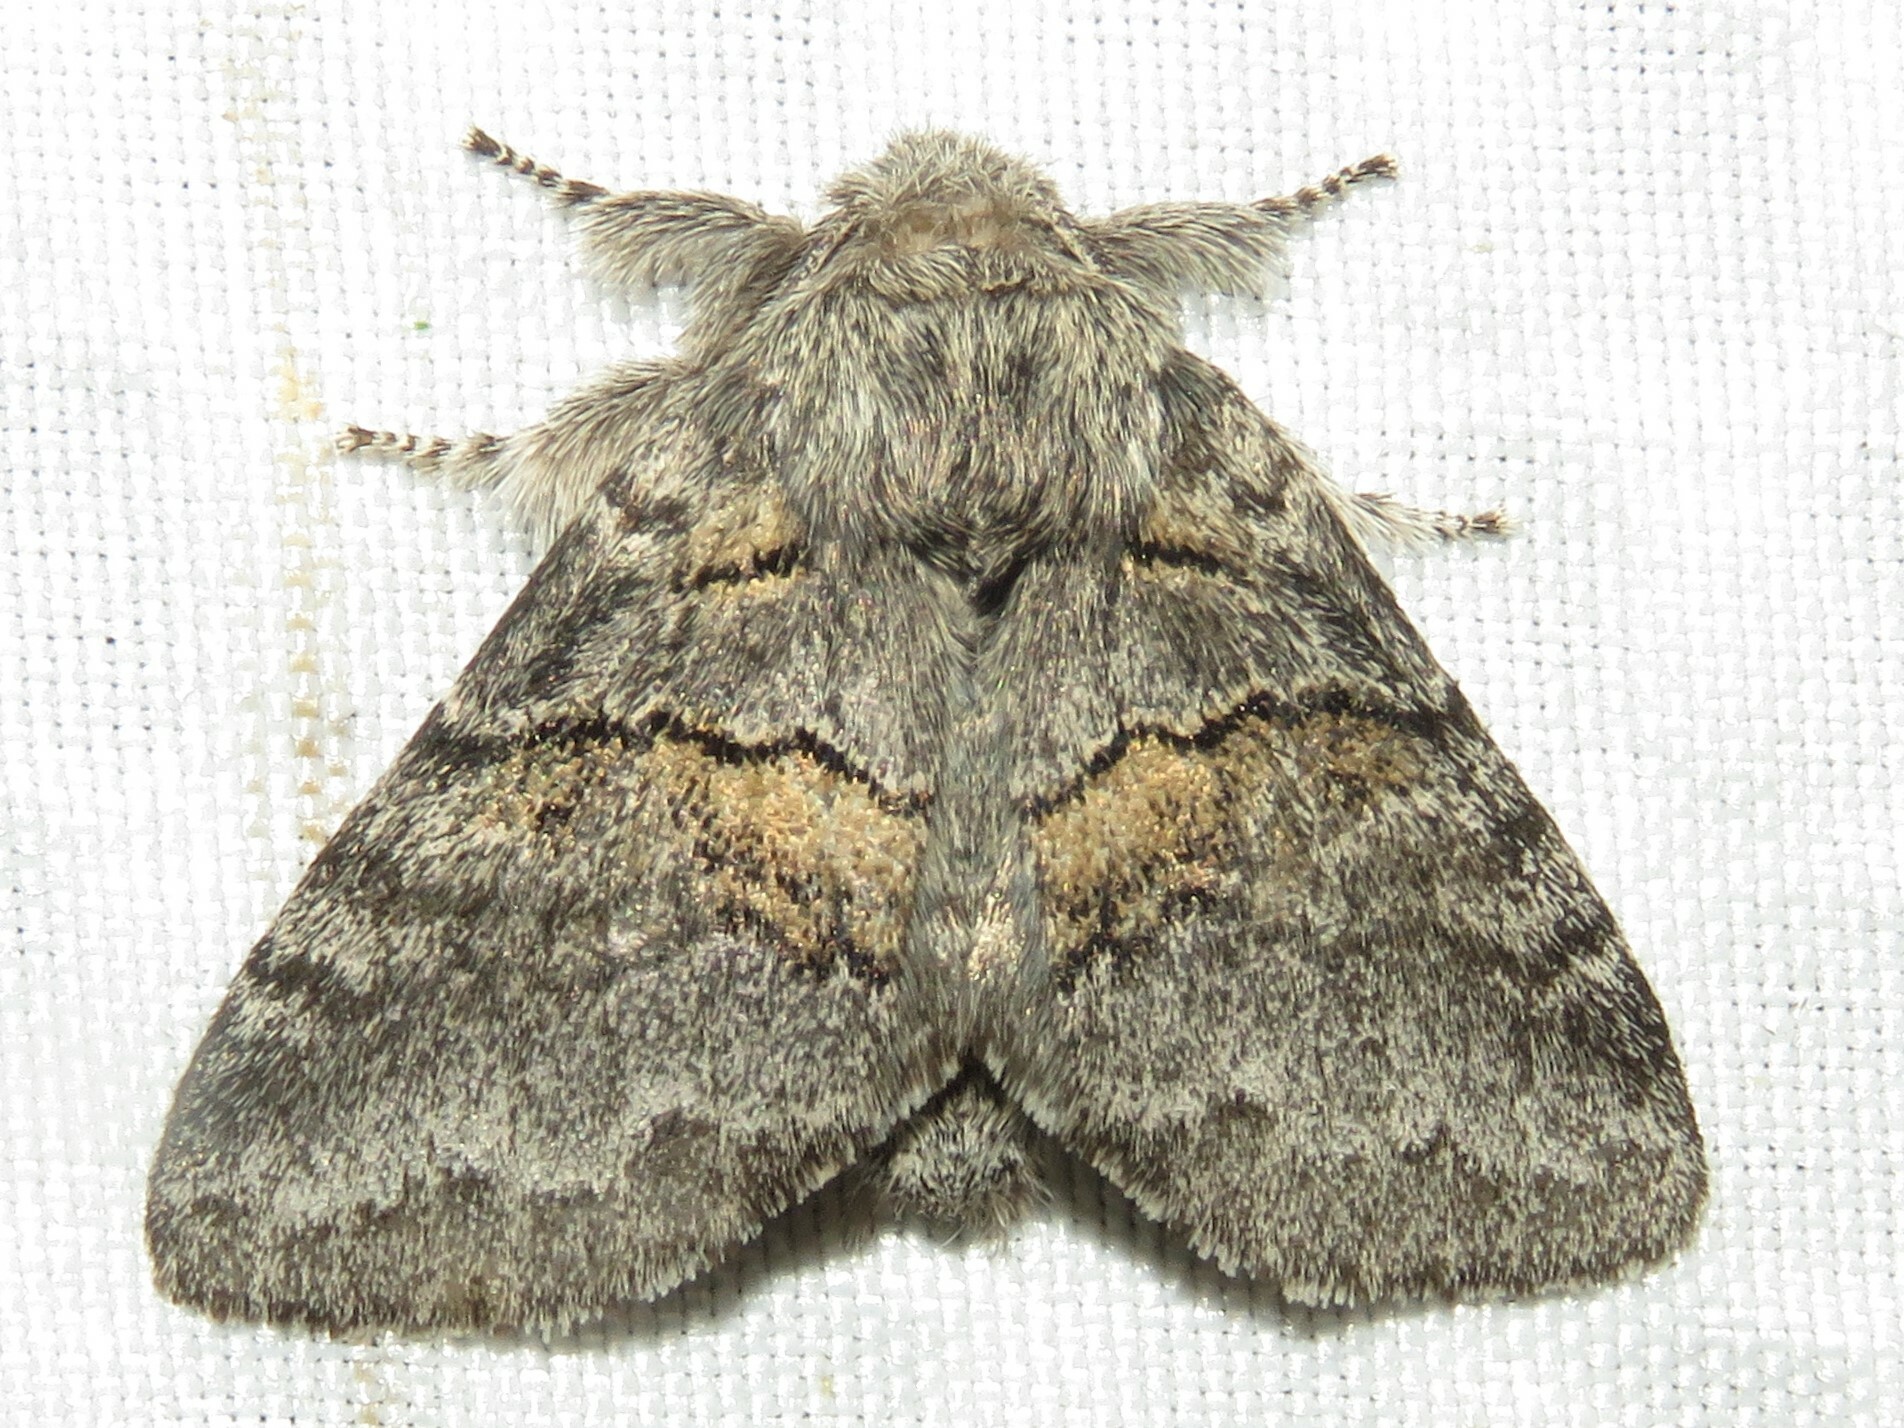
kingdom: Animalia
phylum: Arthropoda
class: Insecta
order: Lepidoptera
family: Notodontidae
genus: Gluphisia
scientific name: Gluphisia septentrionis
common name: Common gluphisia
